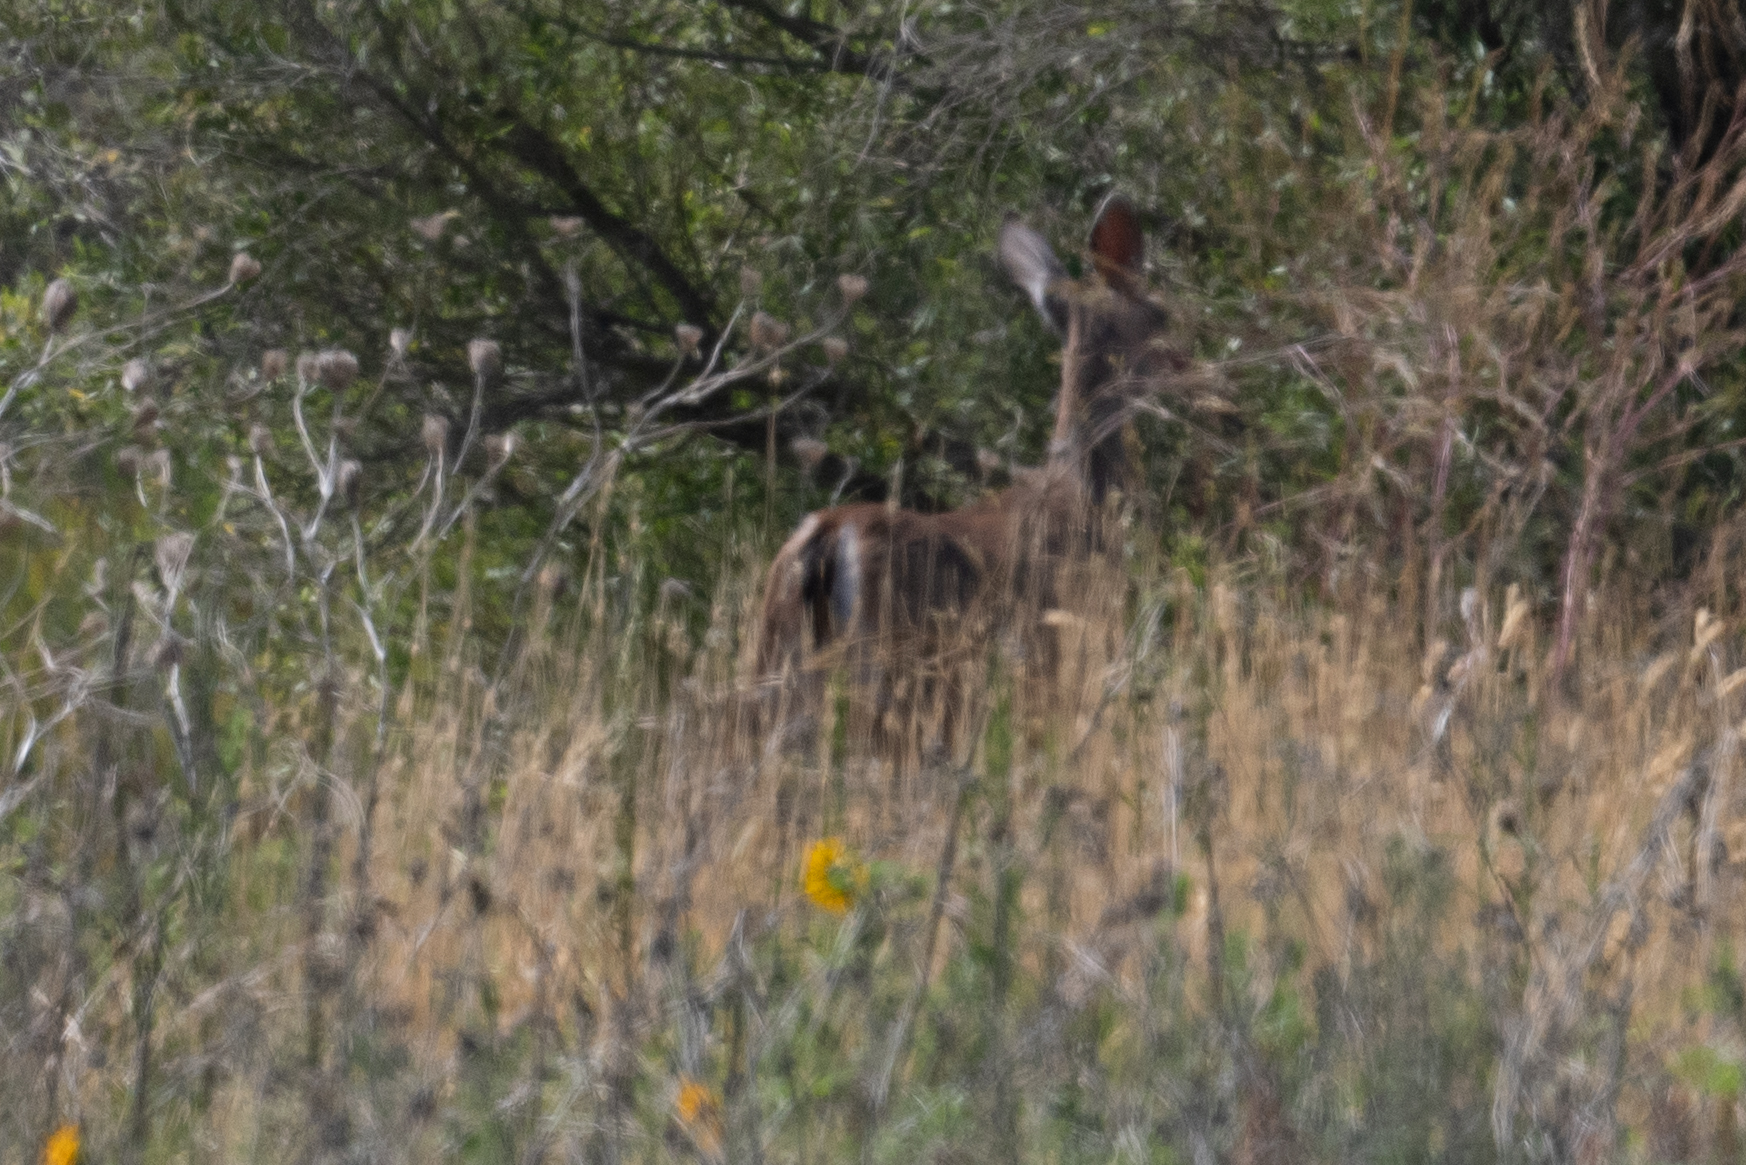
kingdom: Animalia
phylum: Chordata
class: Mammalia
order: Artiodactyla
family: Cervidae
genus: Odocoileus
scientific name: Odocoileus hemionus
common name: Mule deer
